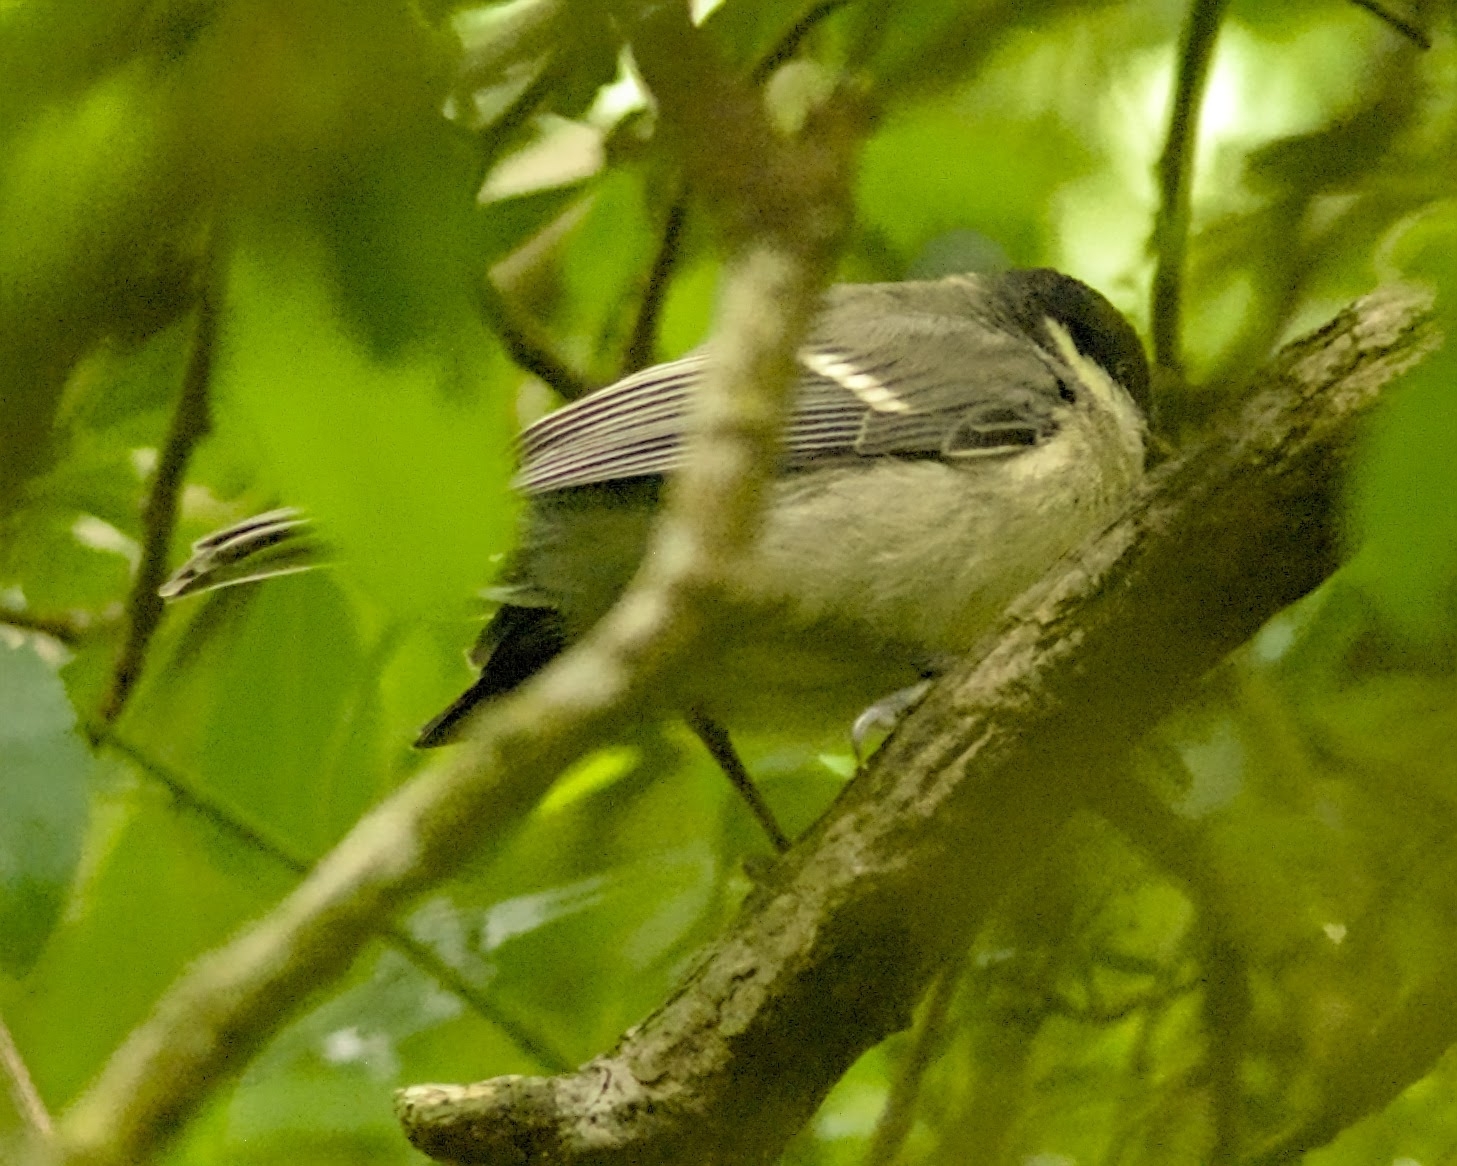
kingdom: Animalia
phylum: Chordata
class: Aves
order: Passeriformes
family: Paridae
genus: Parus
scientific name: Parus major
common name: Great tit
